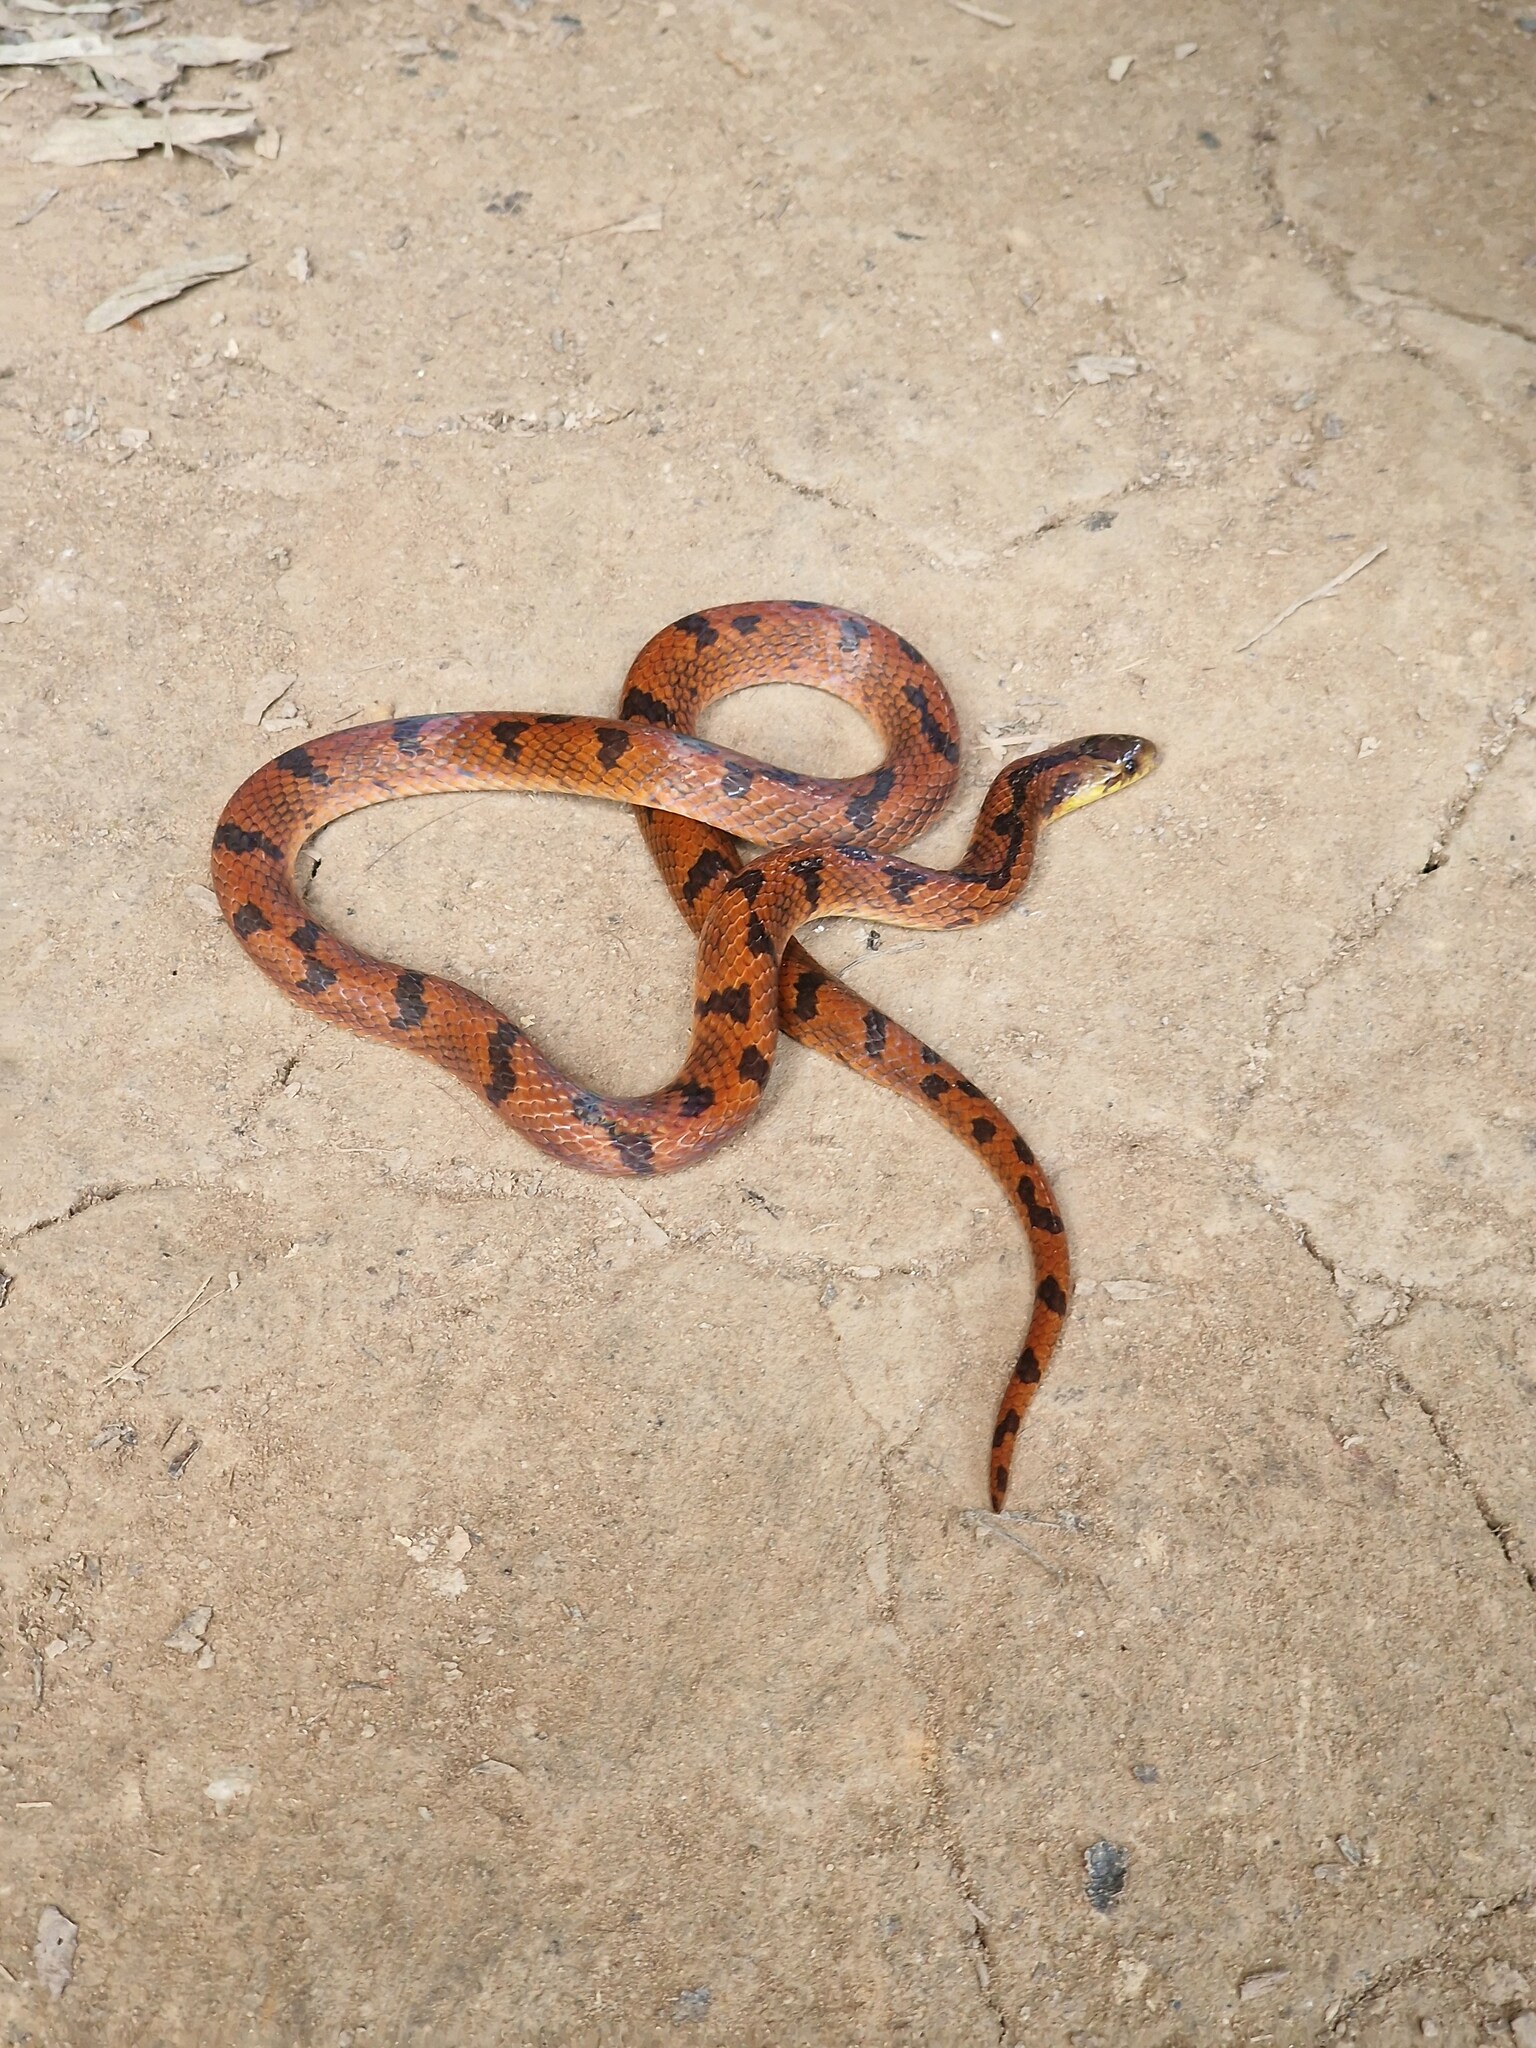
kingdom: Animalia
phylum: Chordata
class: Squamata
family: Colubridae
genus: Xenopholis
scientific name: Xenopholis scalaris
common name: Wucherer's ground snake
